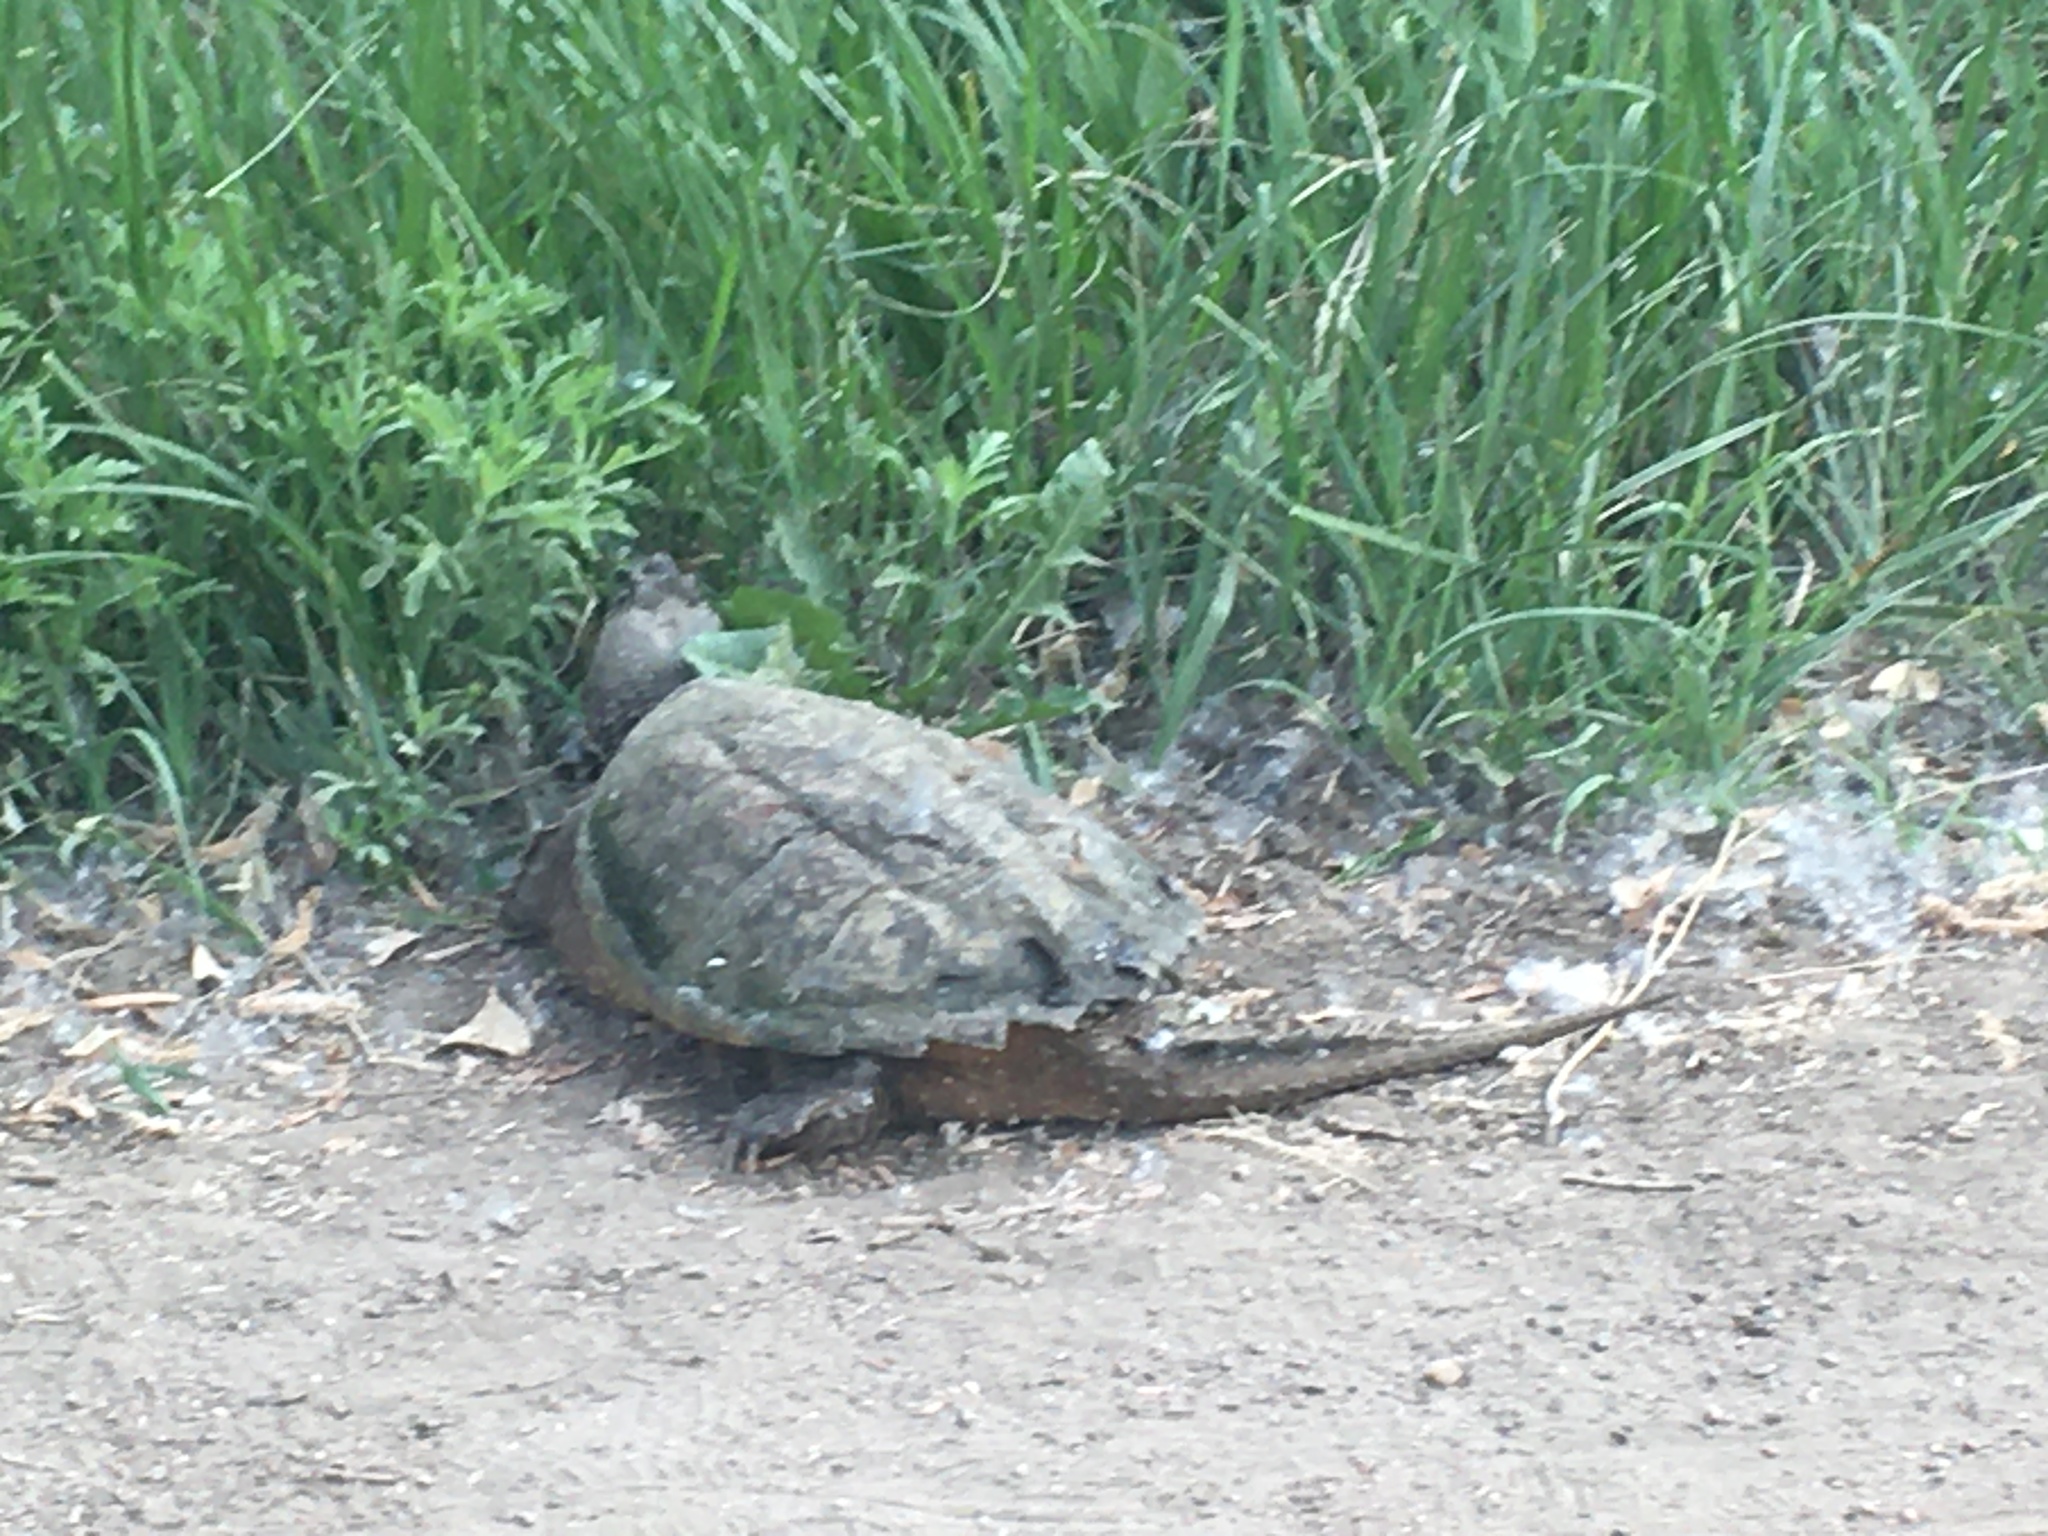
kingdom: Animalia
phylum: Chordata
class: Testudines
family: Chelydridae
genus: Chelydra
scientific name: Chelydra serpentina
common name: Common snapping turtle
